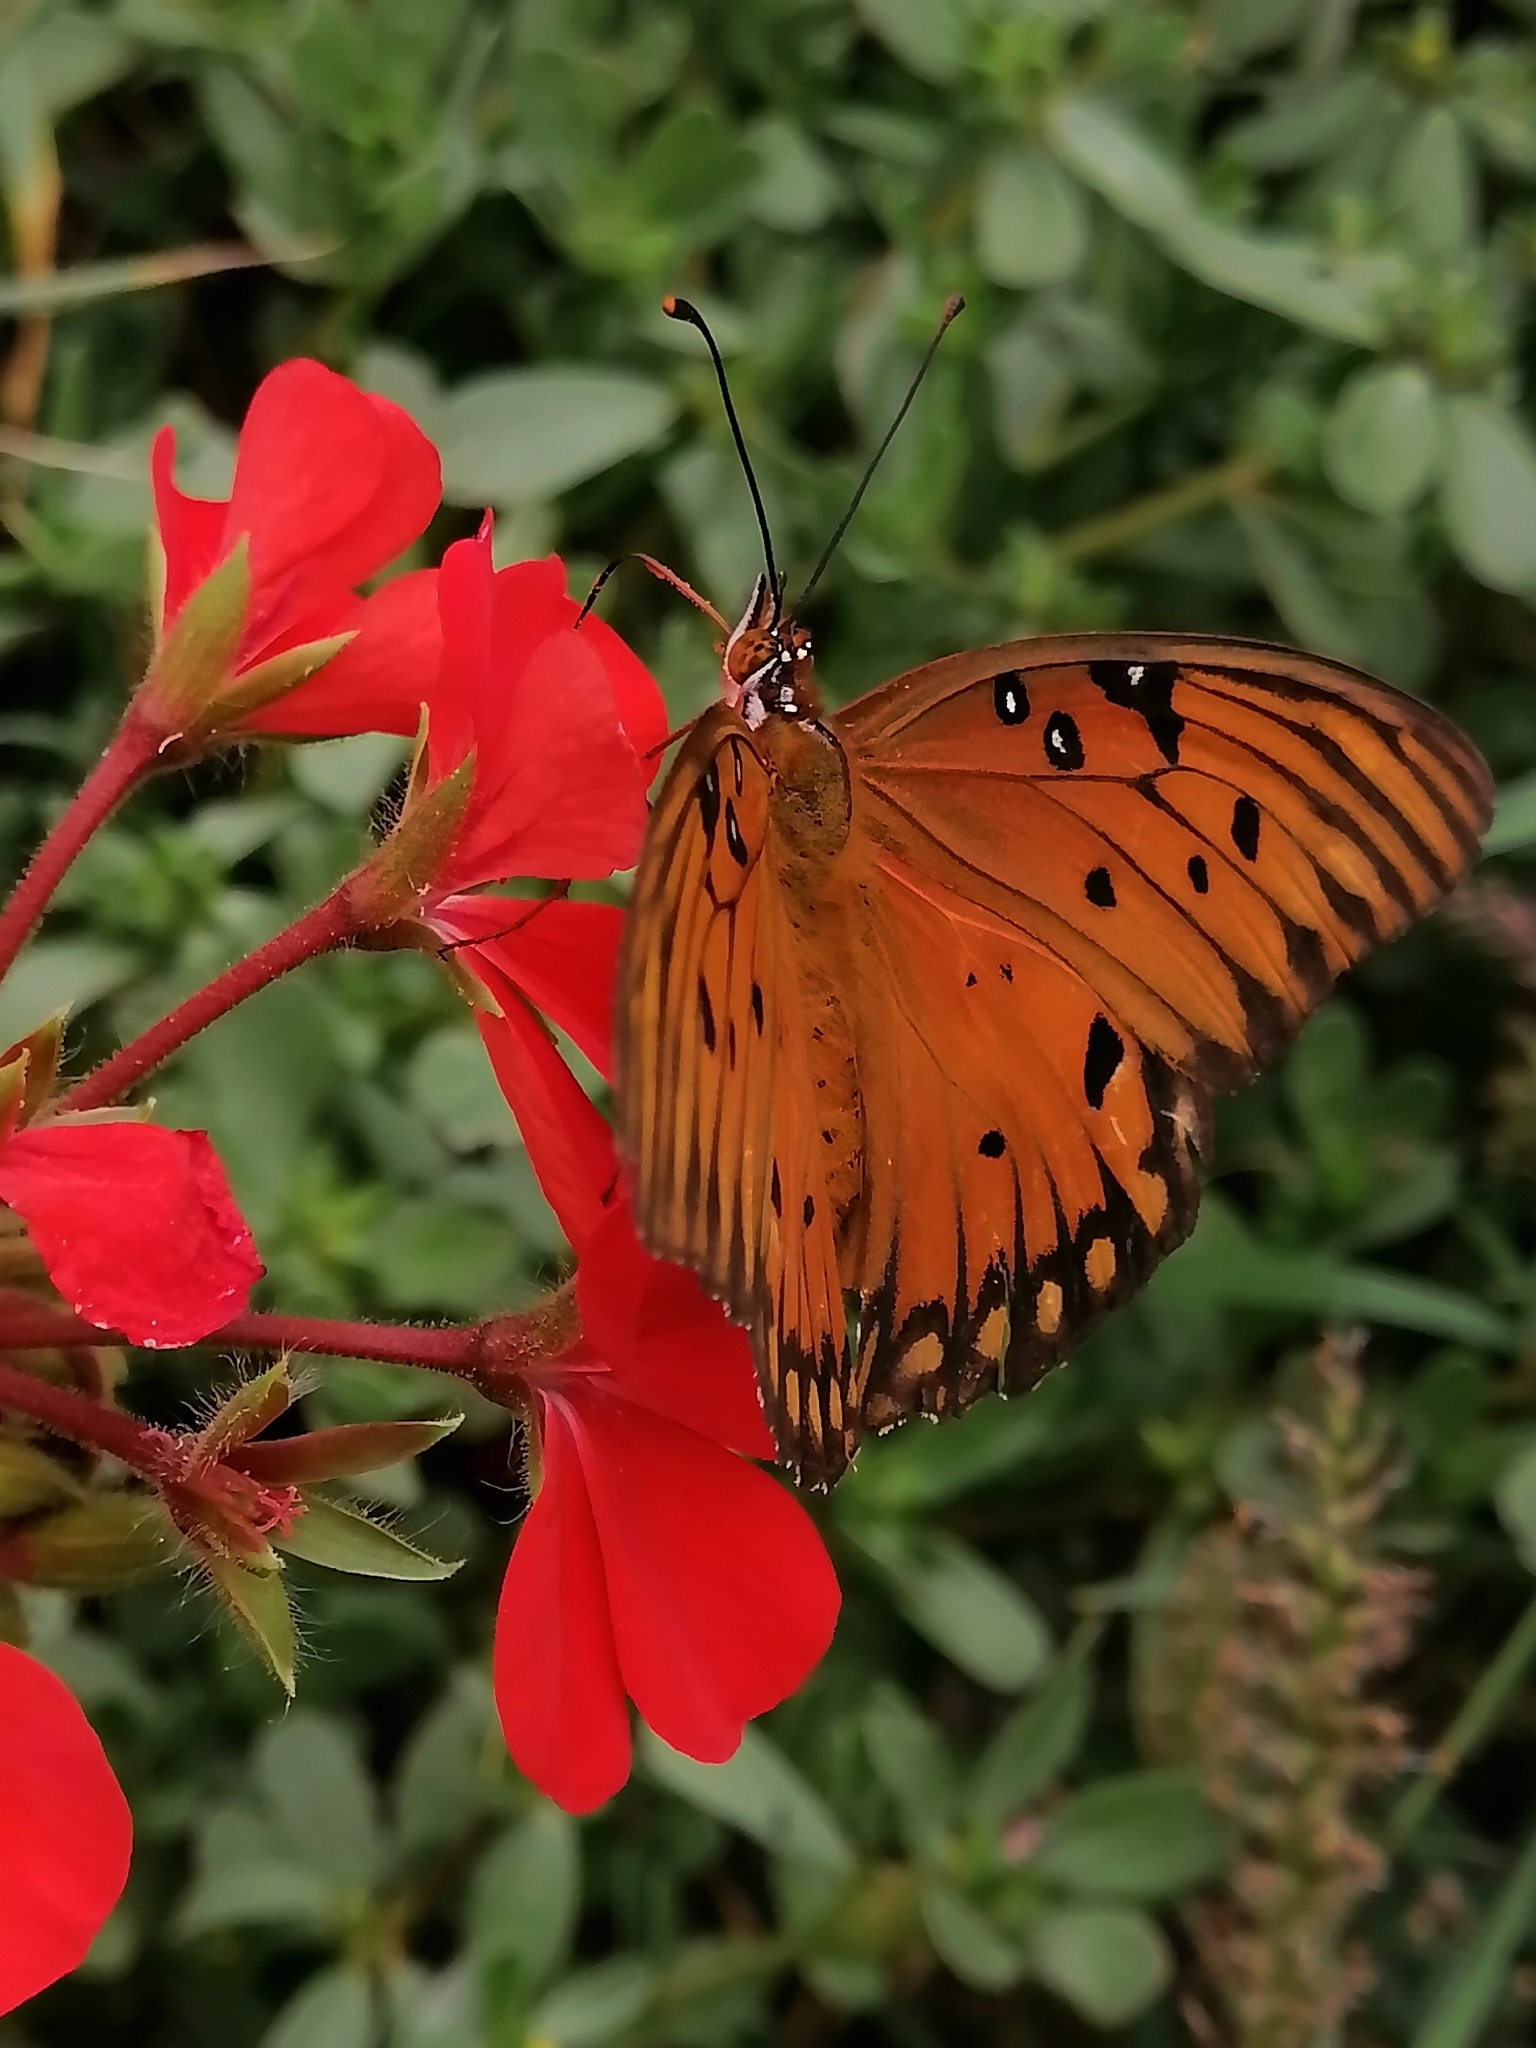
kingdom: Animalia
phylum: Arthropoda
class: Insecta
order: Lepidoptera
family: Nymphalidae
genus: Dione
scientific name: Dione vanillae
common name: Gulf fritillary
